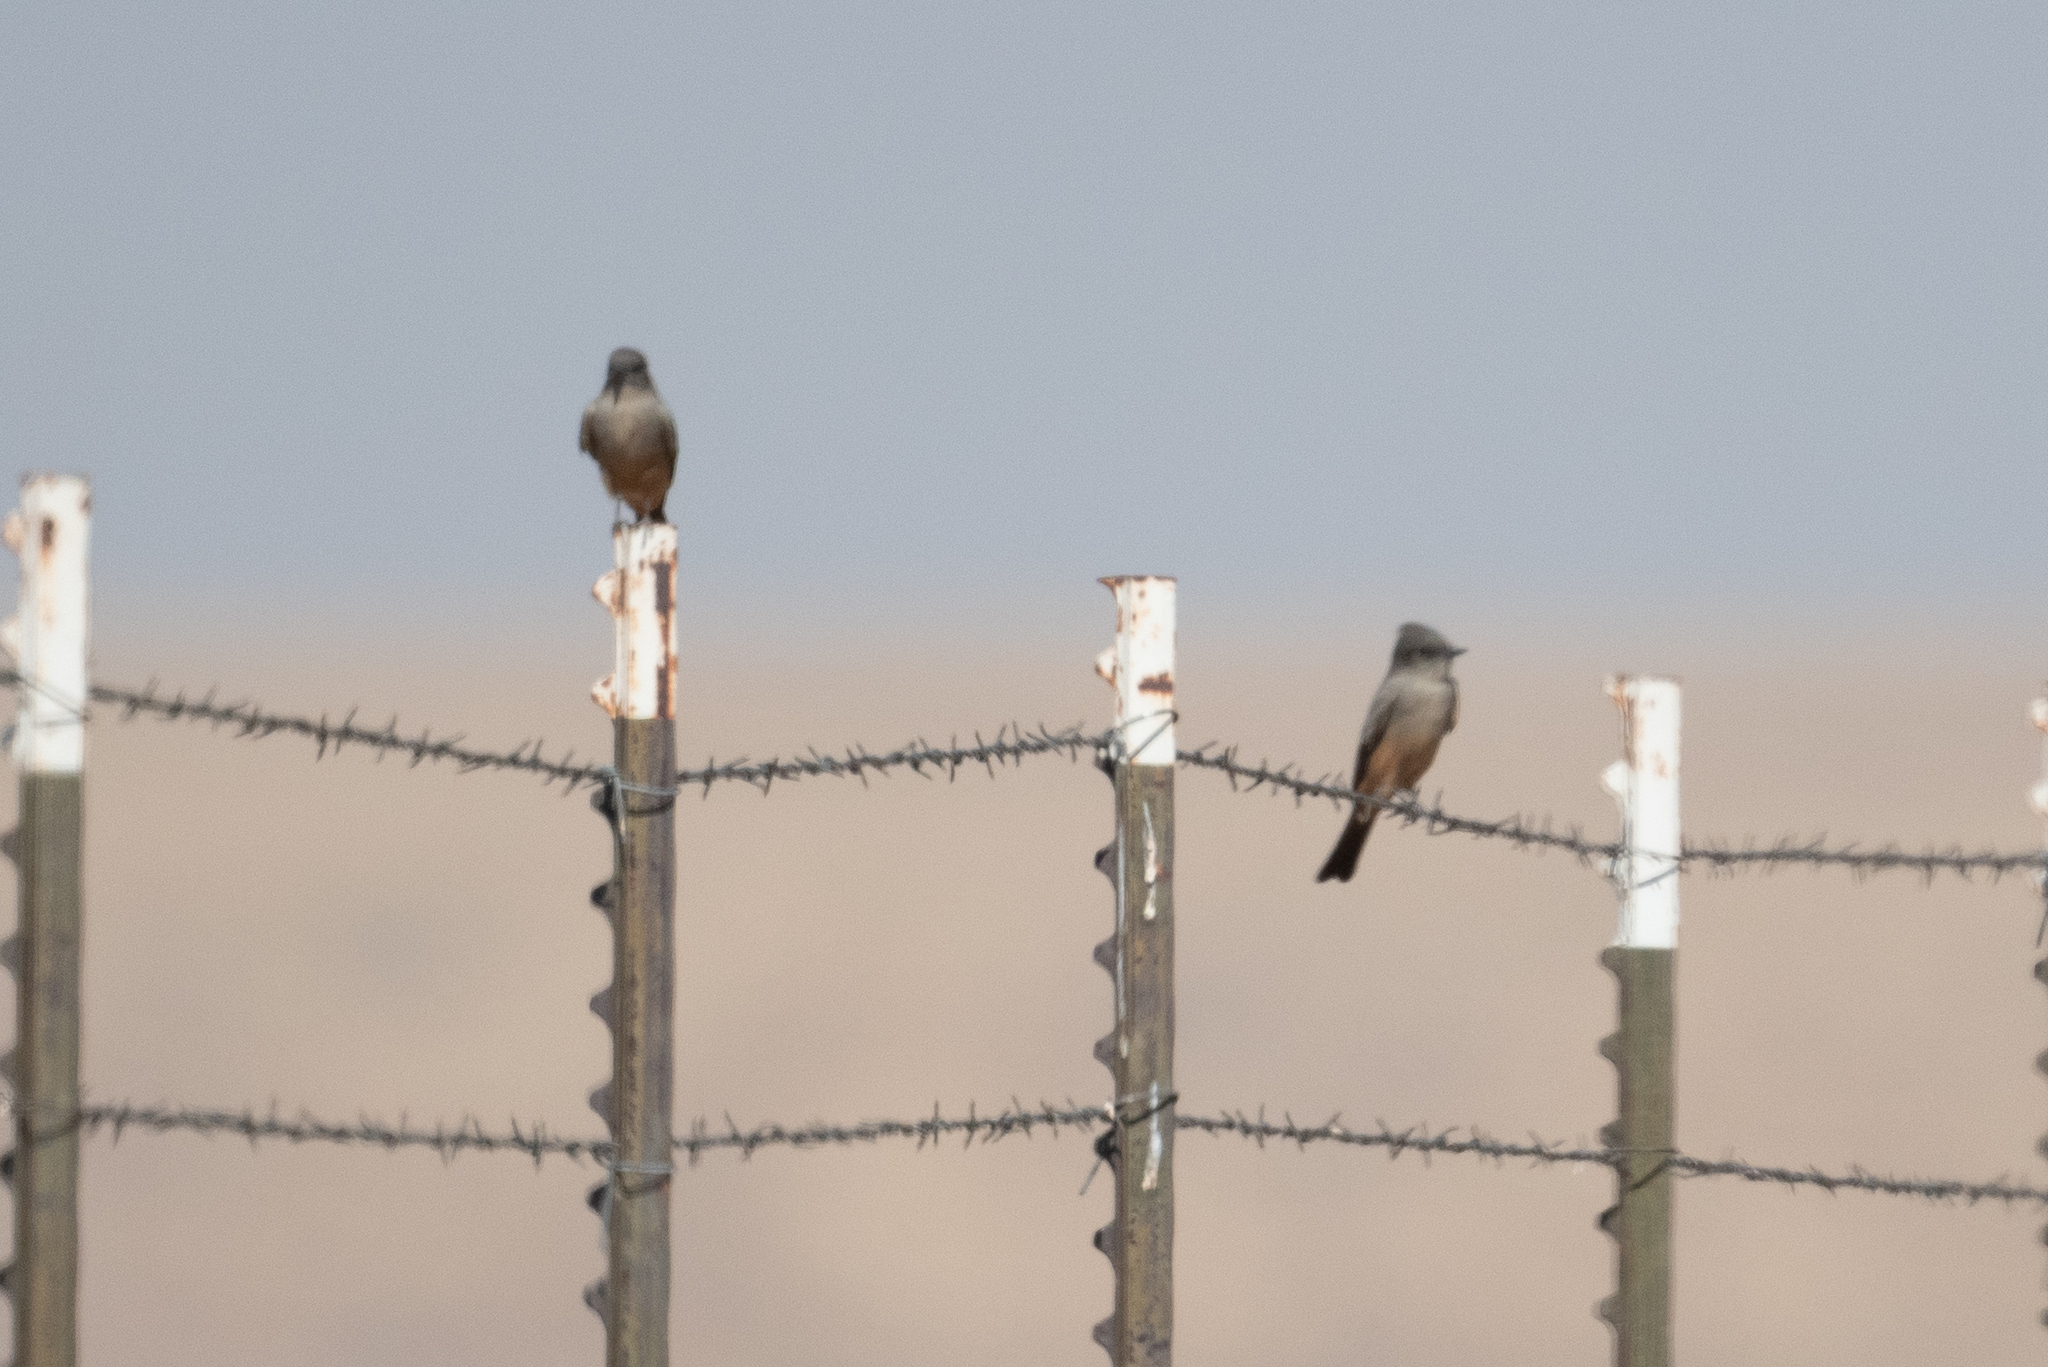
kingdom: Animalia
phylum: Chordata
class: Aves
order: Passeriformes
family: Tyrannidae
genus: Sayornis
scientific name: Sayornis saya
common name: Say's phoebe
